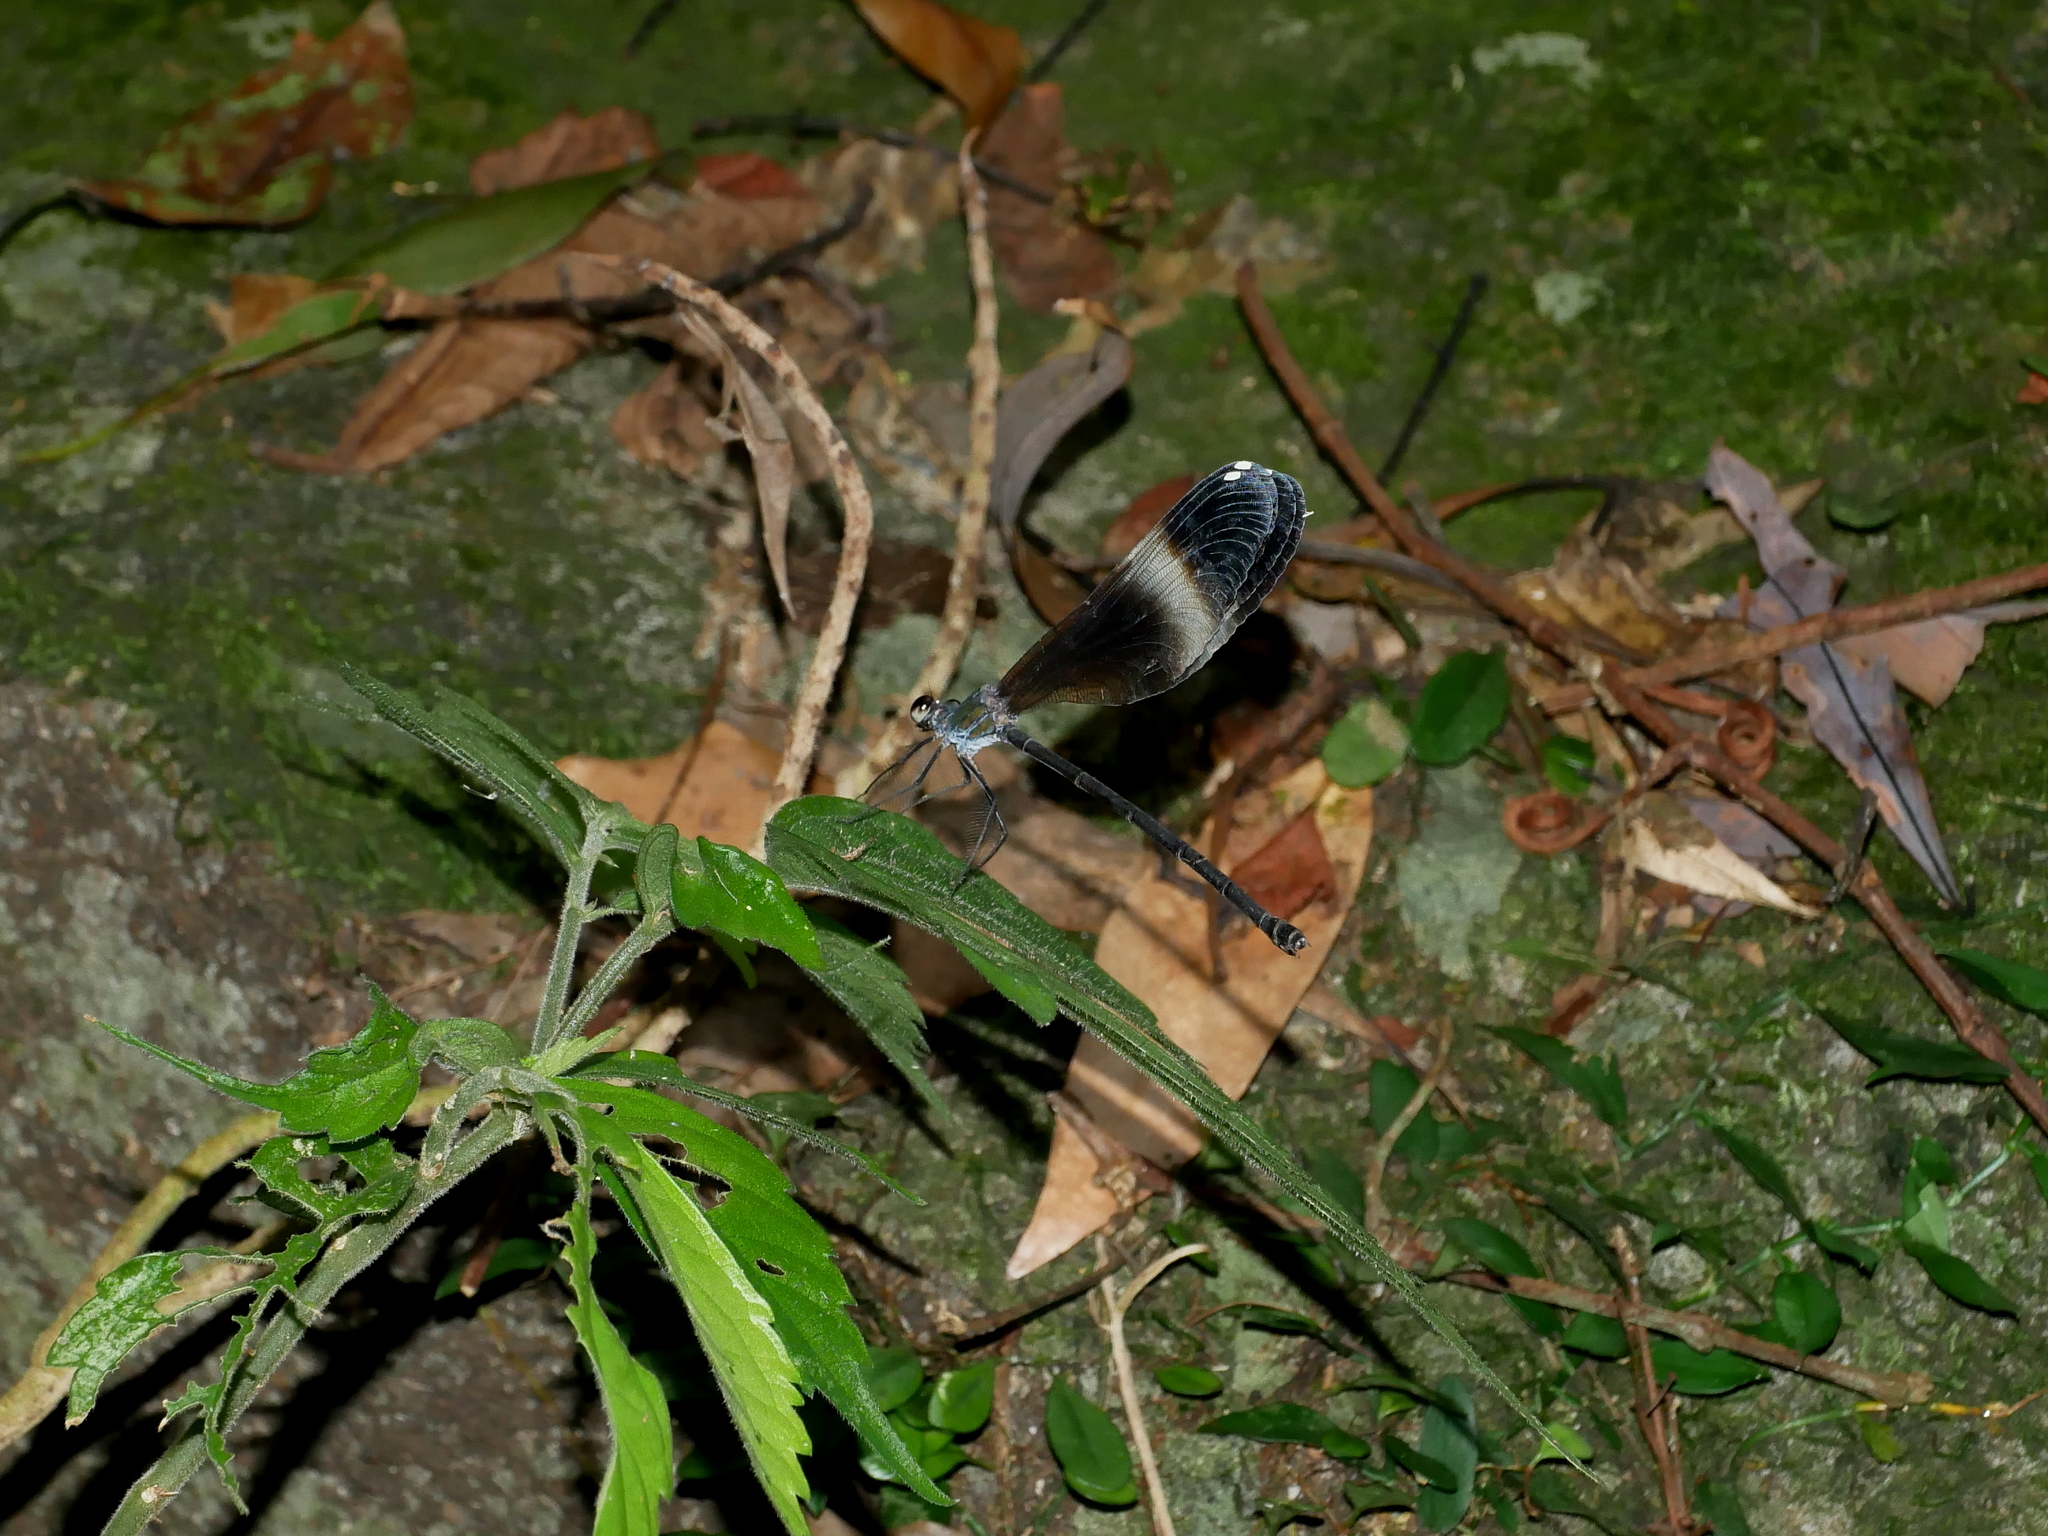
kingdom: Animalia
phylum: Arthropoda
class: Insecta
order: Odonata
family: Calopterygidae
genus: Psolodesmus
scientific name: Psolodesmus mandarinus
